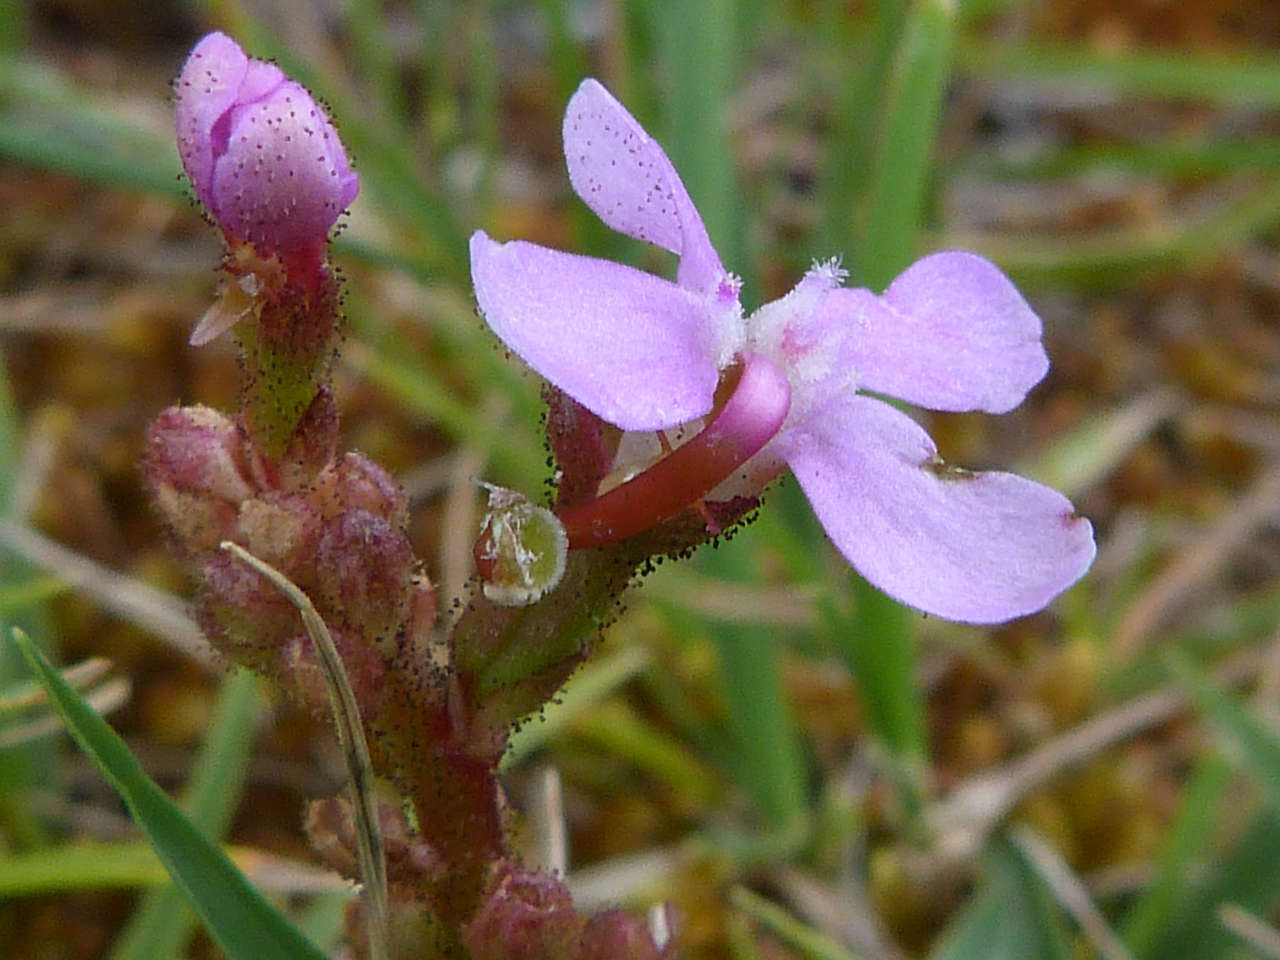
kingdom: Plantae
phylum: Tracheophyta
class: Magnoliopsida
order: Asterales
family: Stylidiaceae
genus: Stylidium
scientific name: Stylidium armeria
